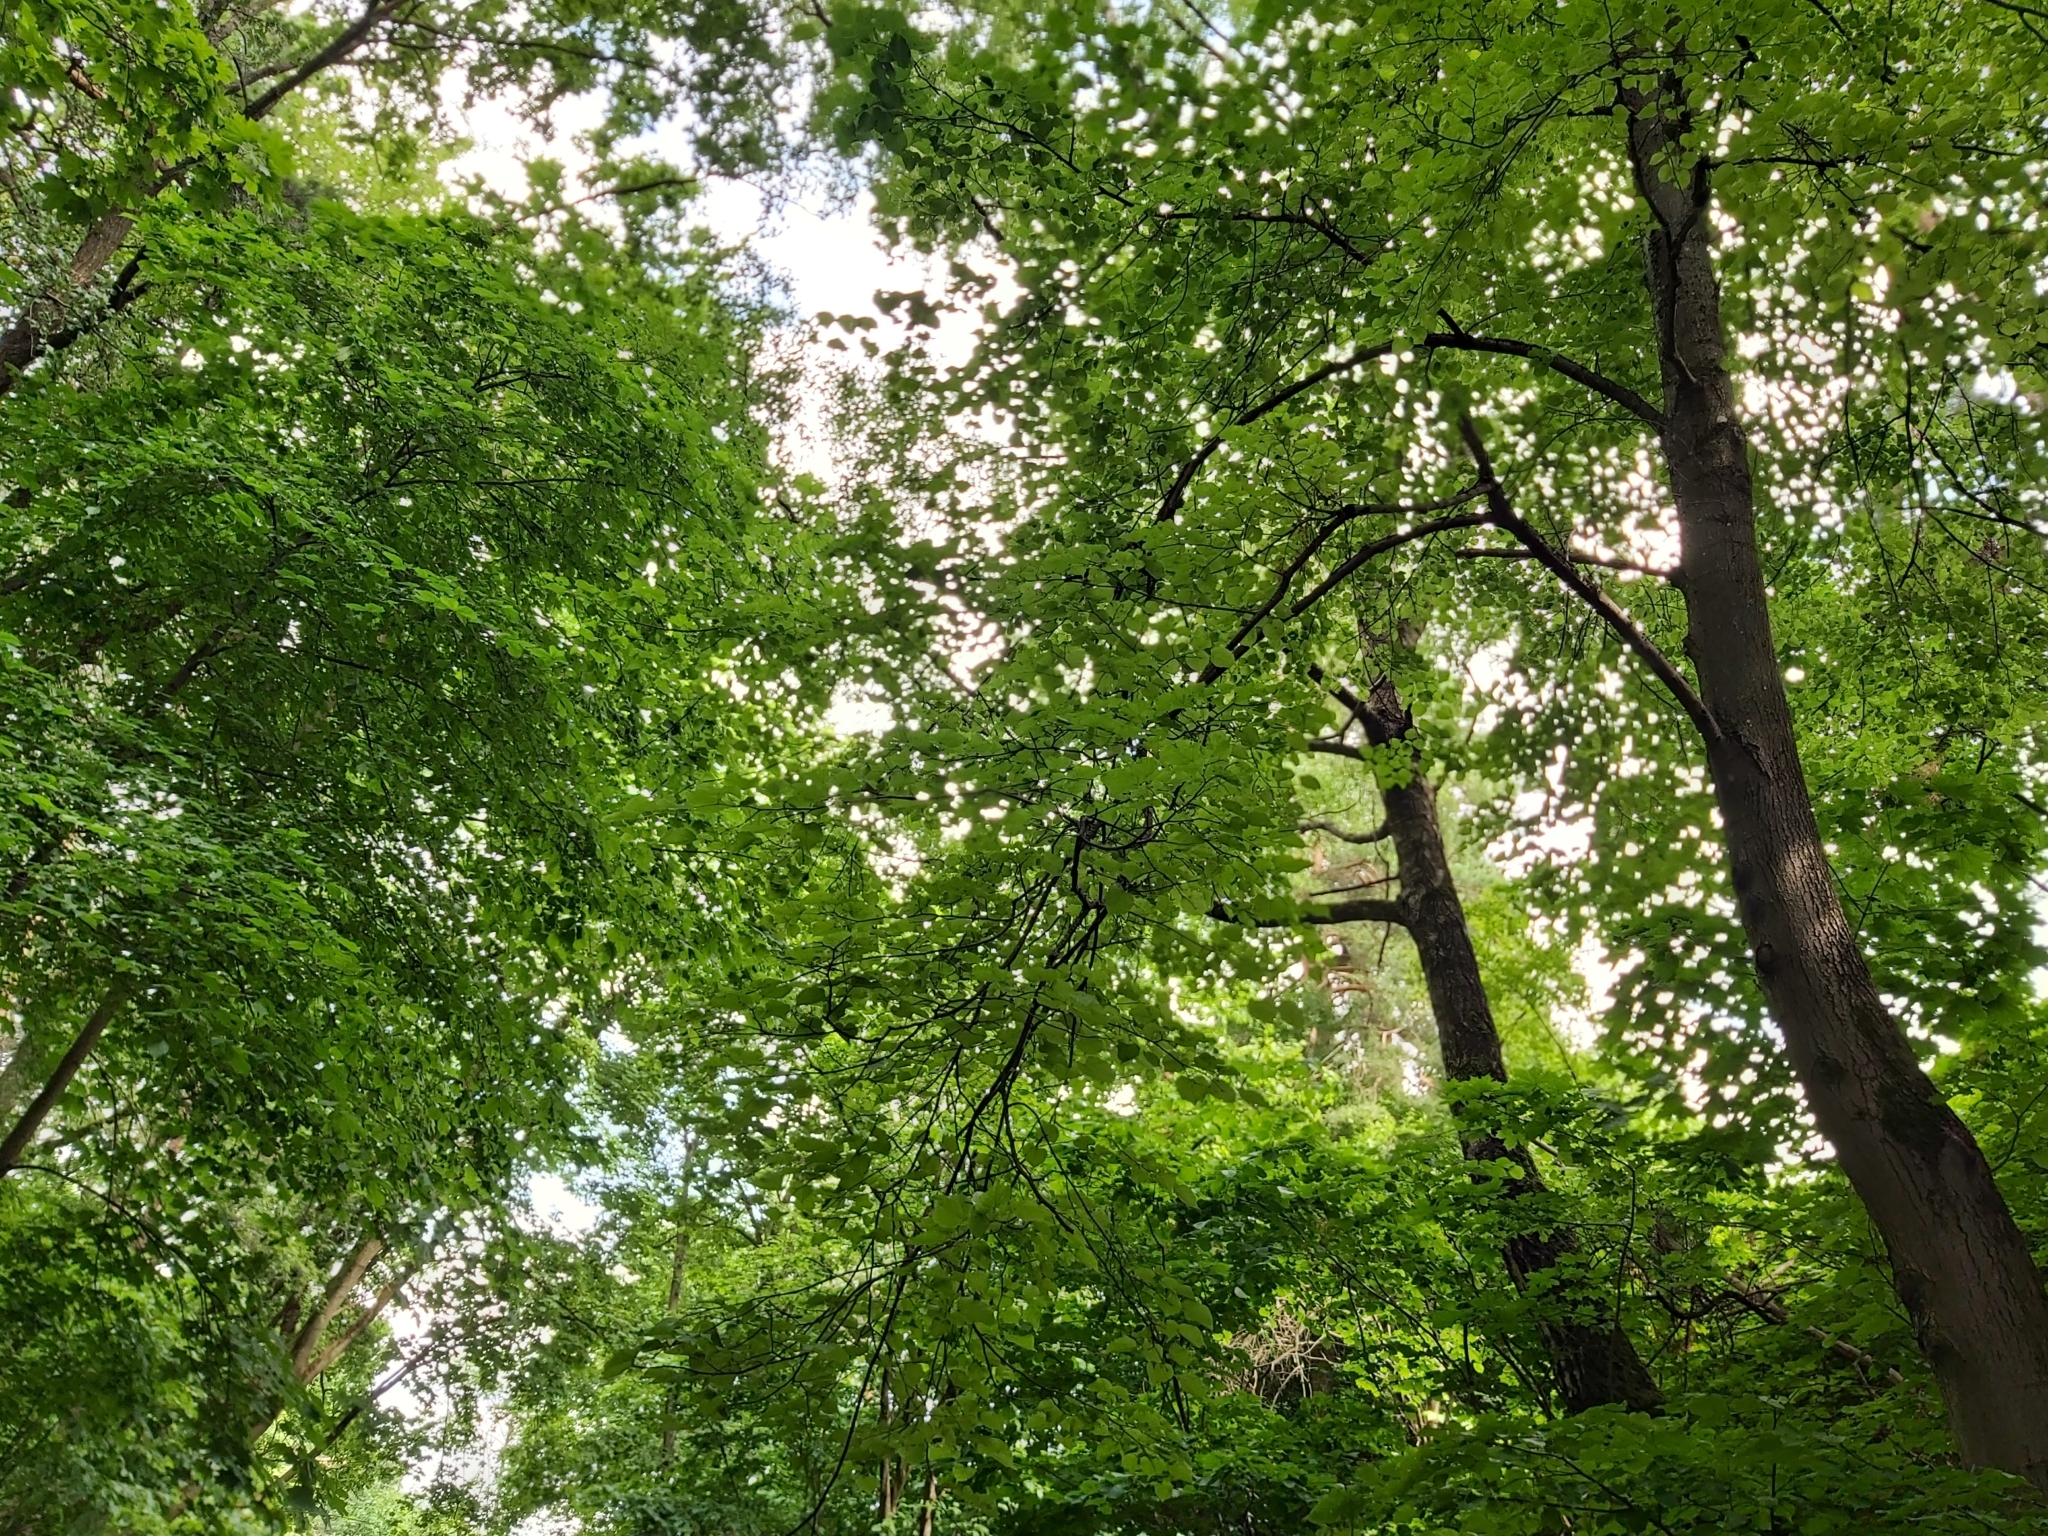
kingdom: Animalia
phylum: Chordata
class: Aves
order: Passeriformes
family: Corvidae
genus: Corvus
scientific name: Corvus corax
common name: Common raven
